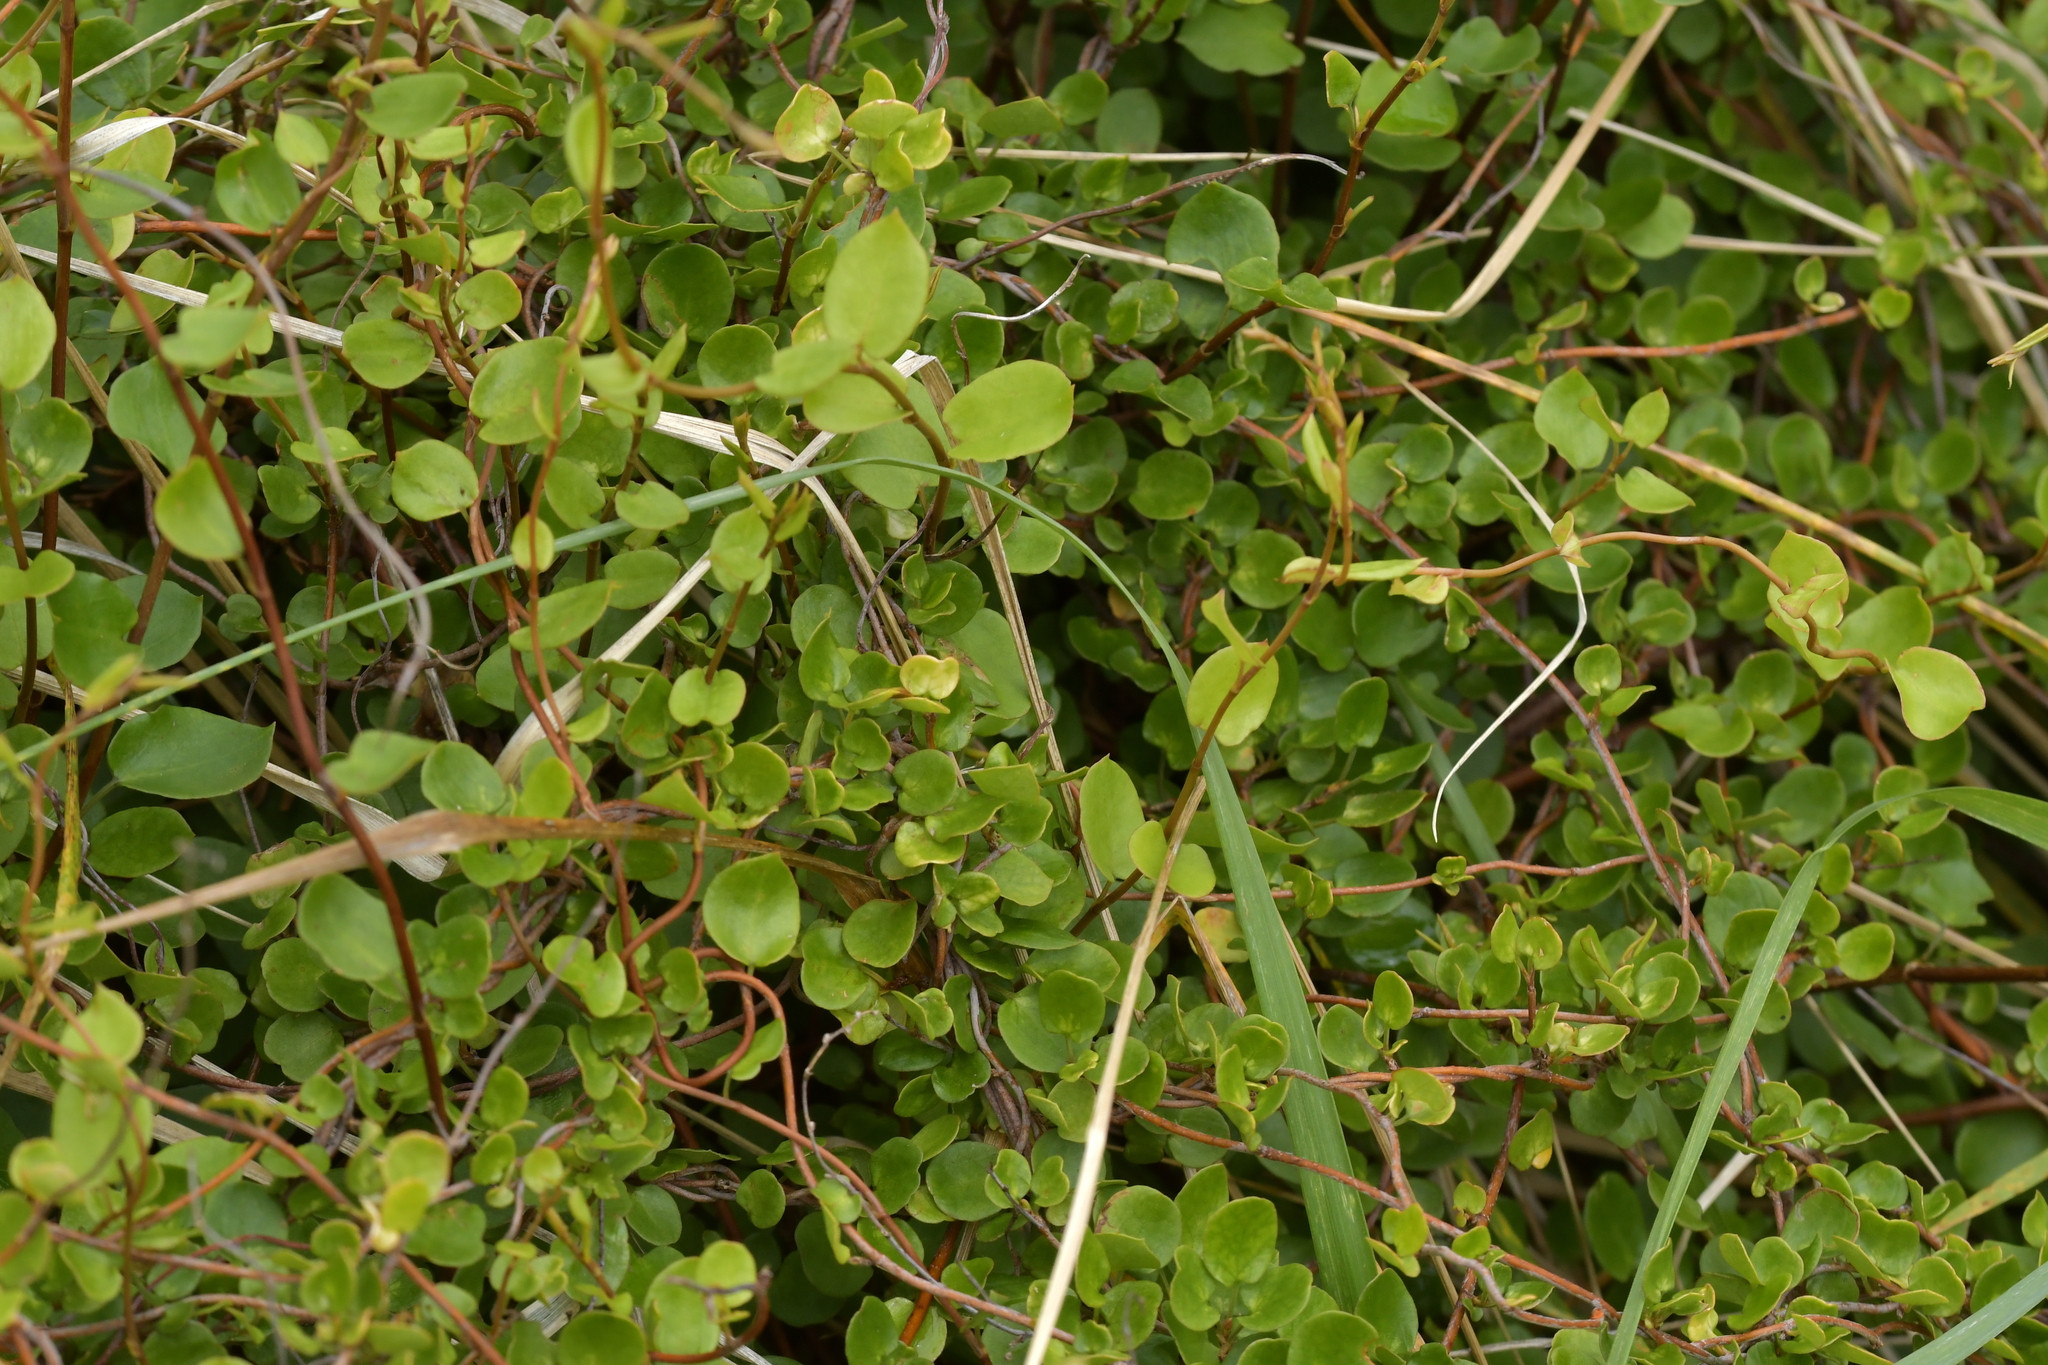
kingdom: Plantae
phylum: Tracheophyta
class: Magnoliopsida
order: Caryophyllales
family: Polygonaceae
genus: Muehlenbeckia
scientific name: Muehlenbeckia complexa
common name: Wireplant
